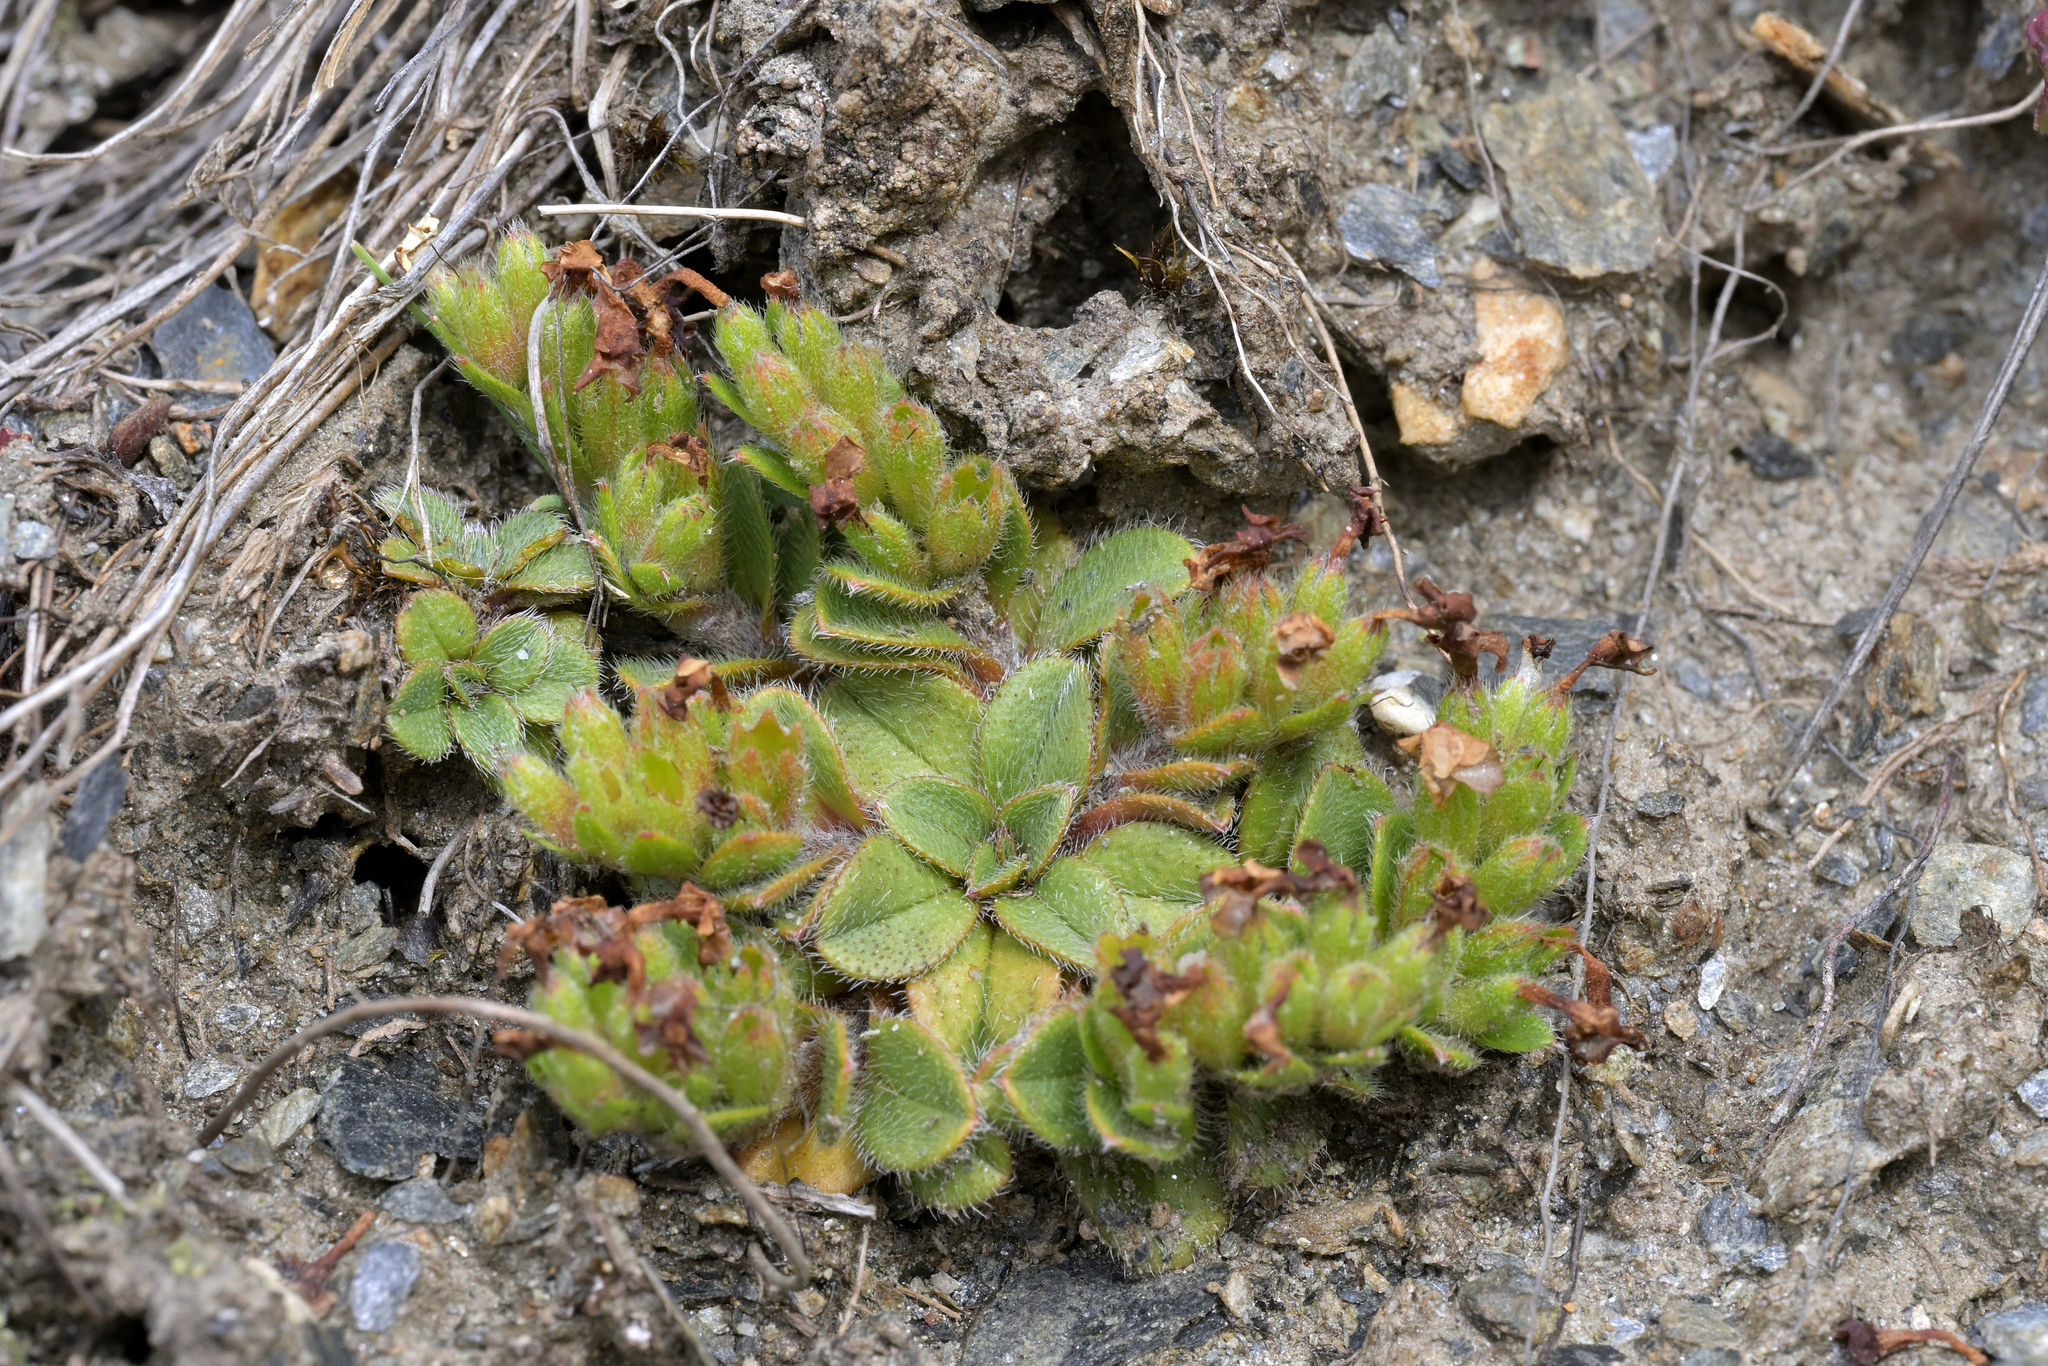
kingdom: Plantae
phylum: Tracheophyta
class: Magnoliopsida
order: Boraginales
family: Boraginaceae
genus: Myosotis
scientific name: Myosotis lyallii
